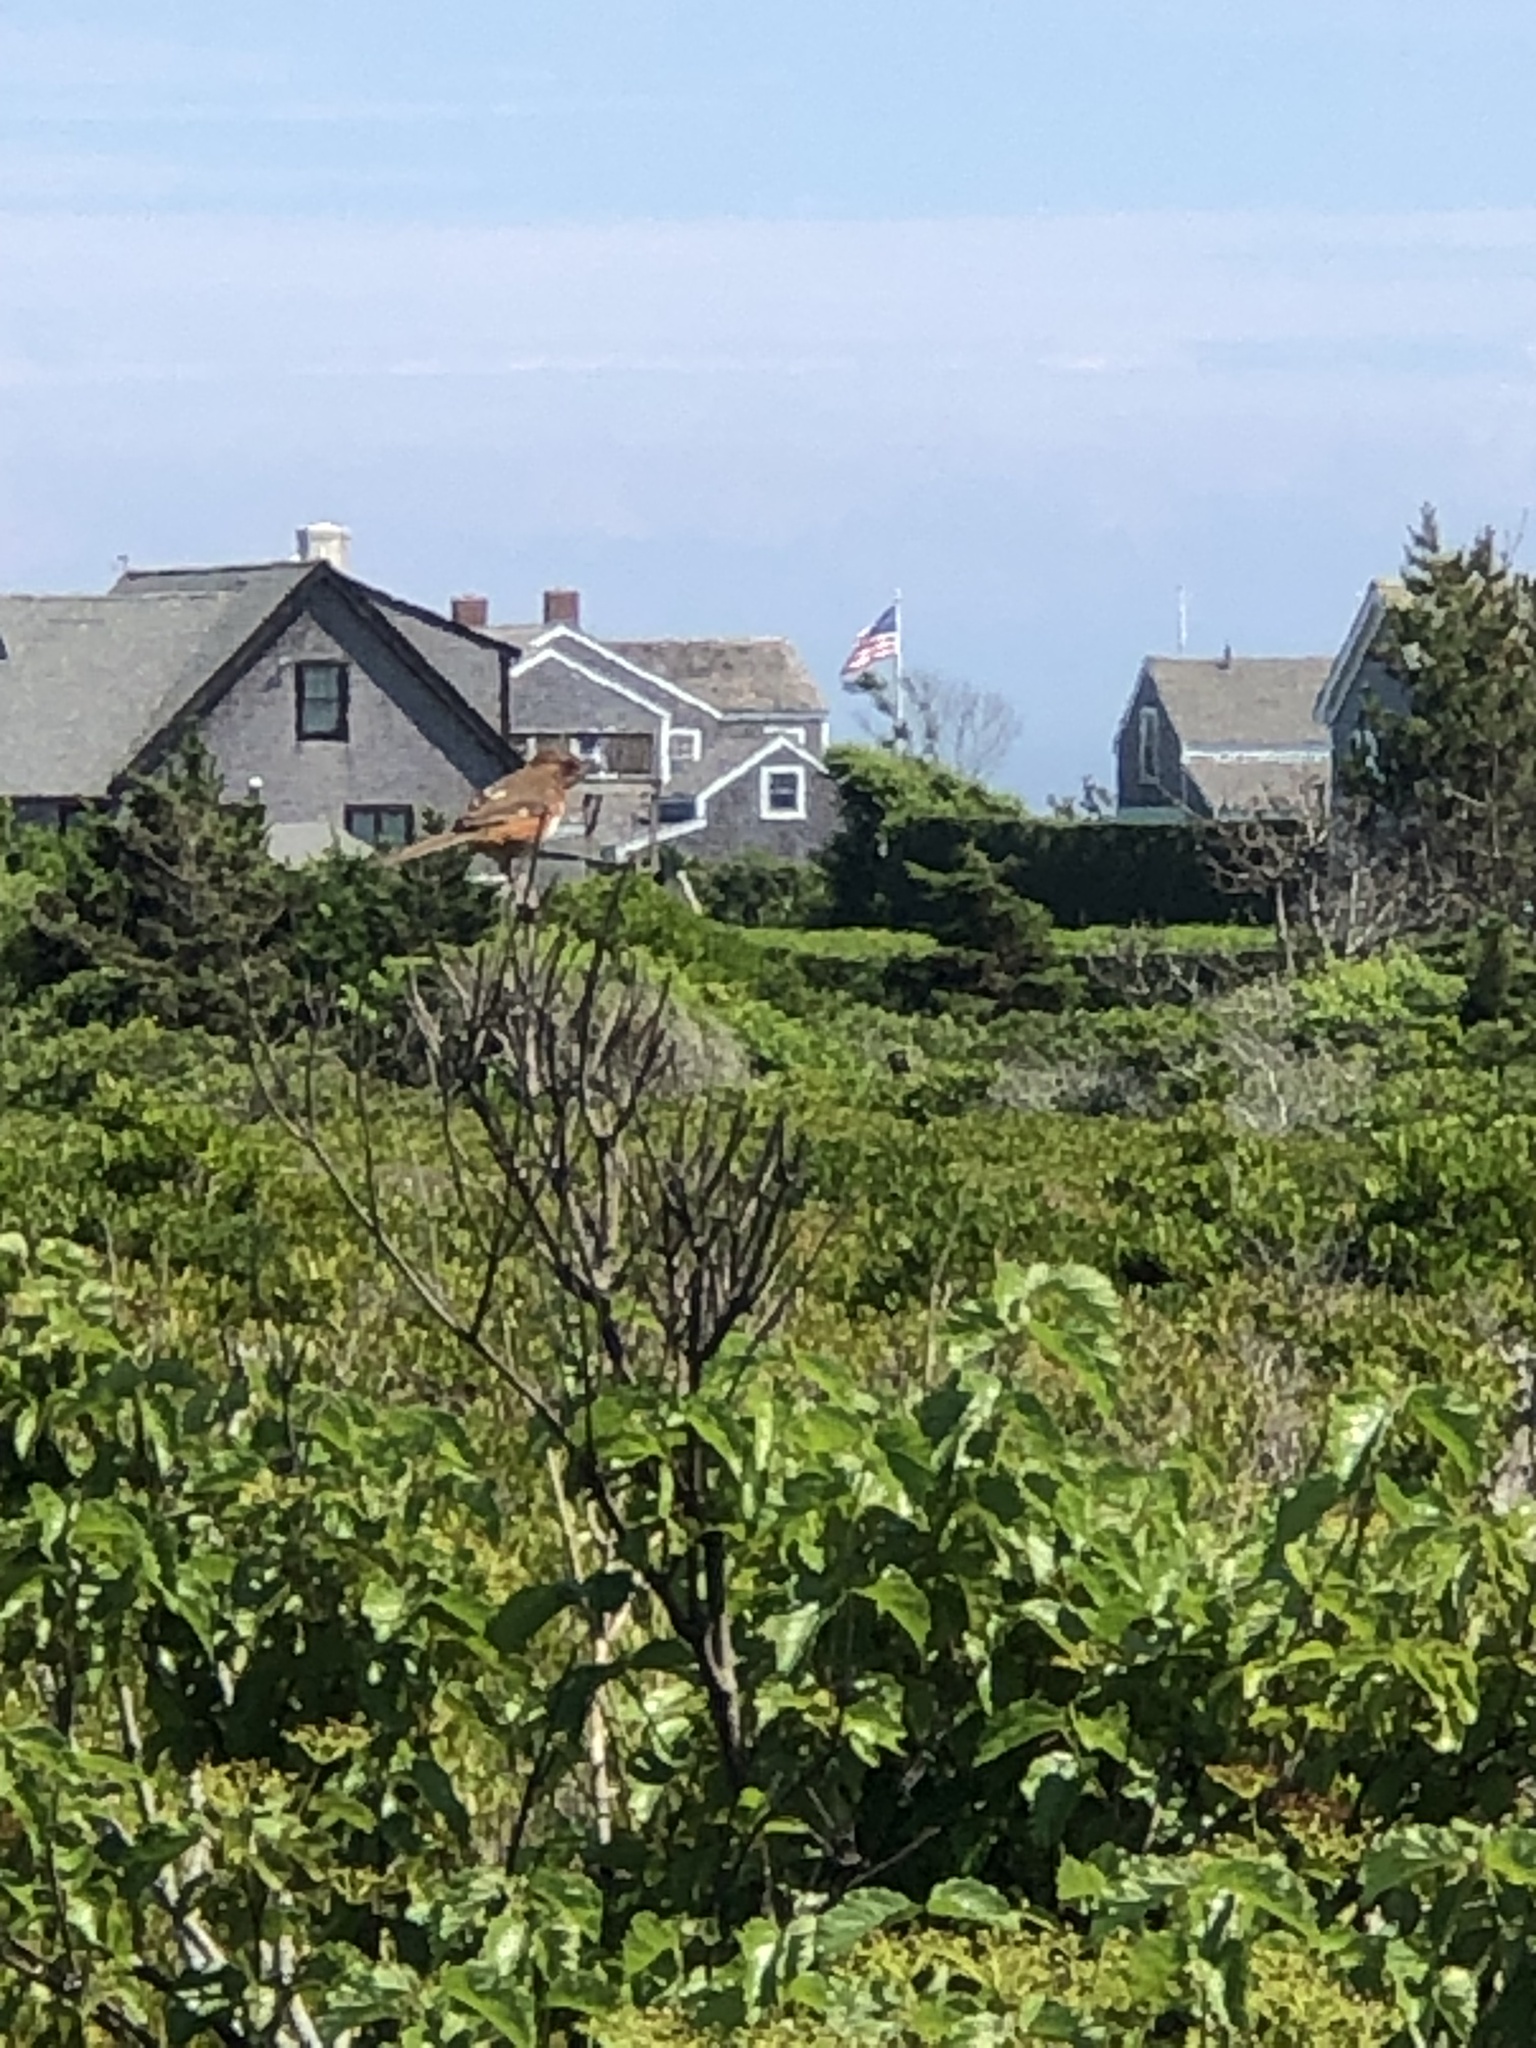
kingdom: Animalia
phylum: Chordata
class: Aves
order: Passeriformes
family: Passerellidae
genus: Pipilo
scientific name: Pipilo erythrophthalmus
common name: Eastern towhee
